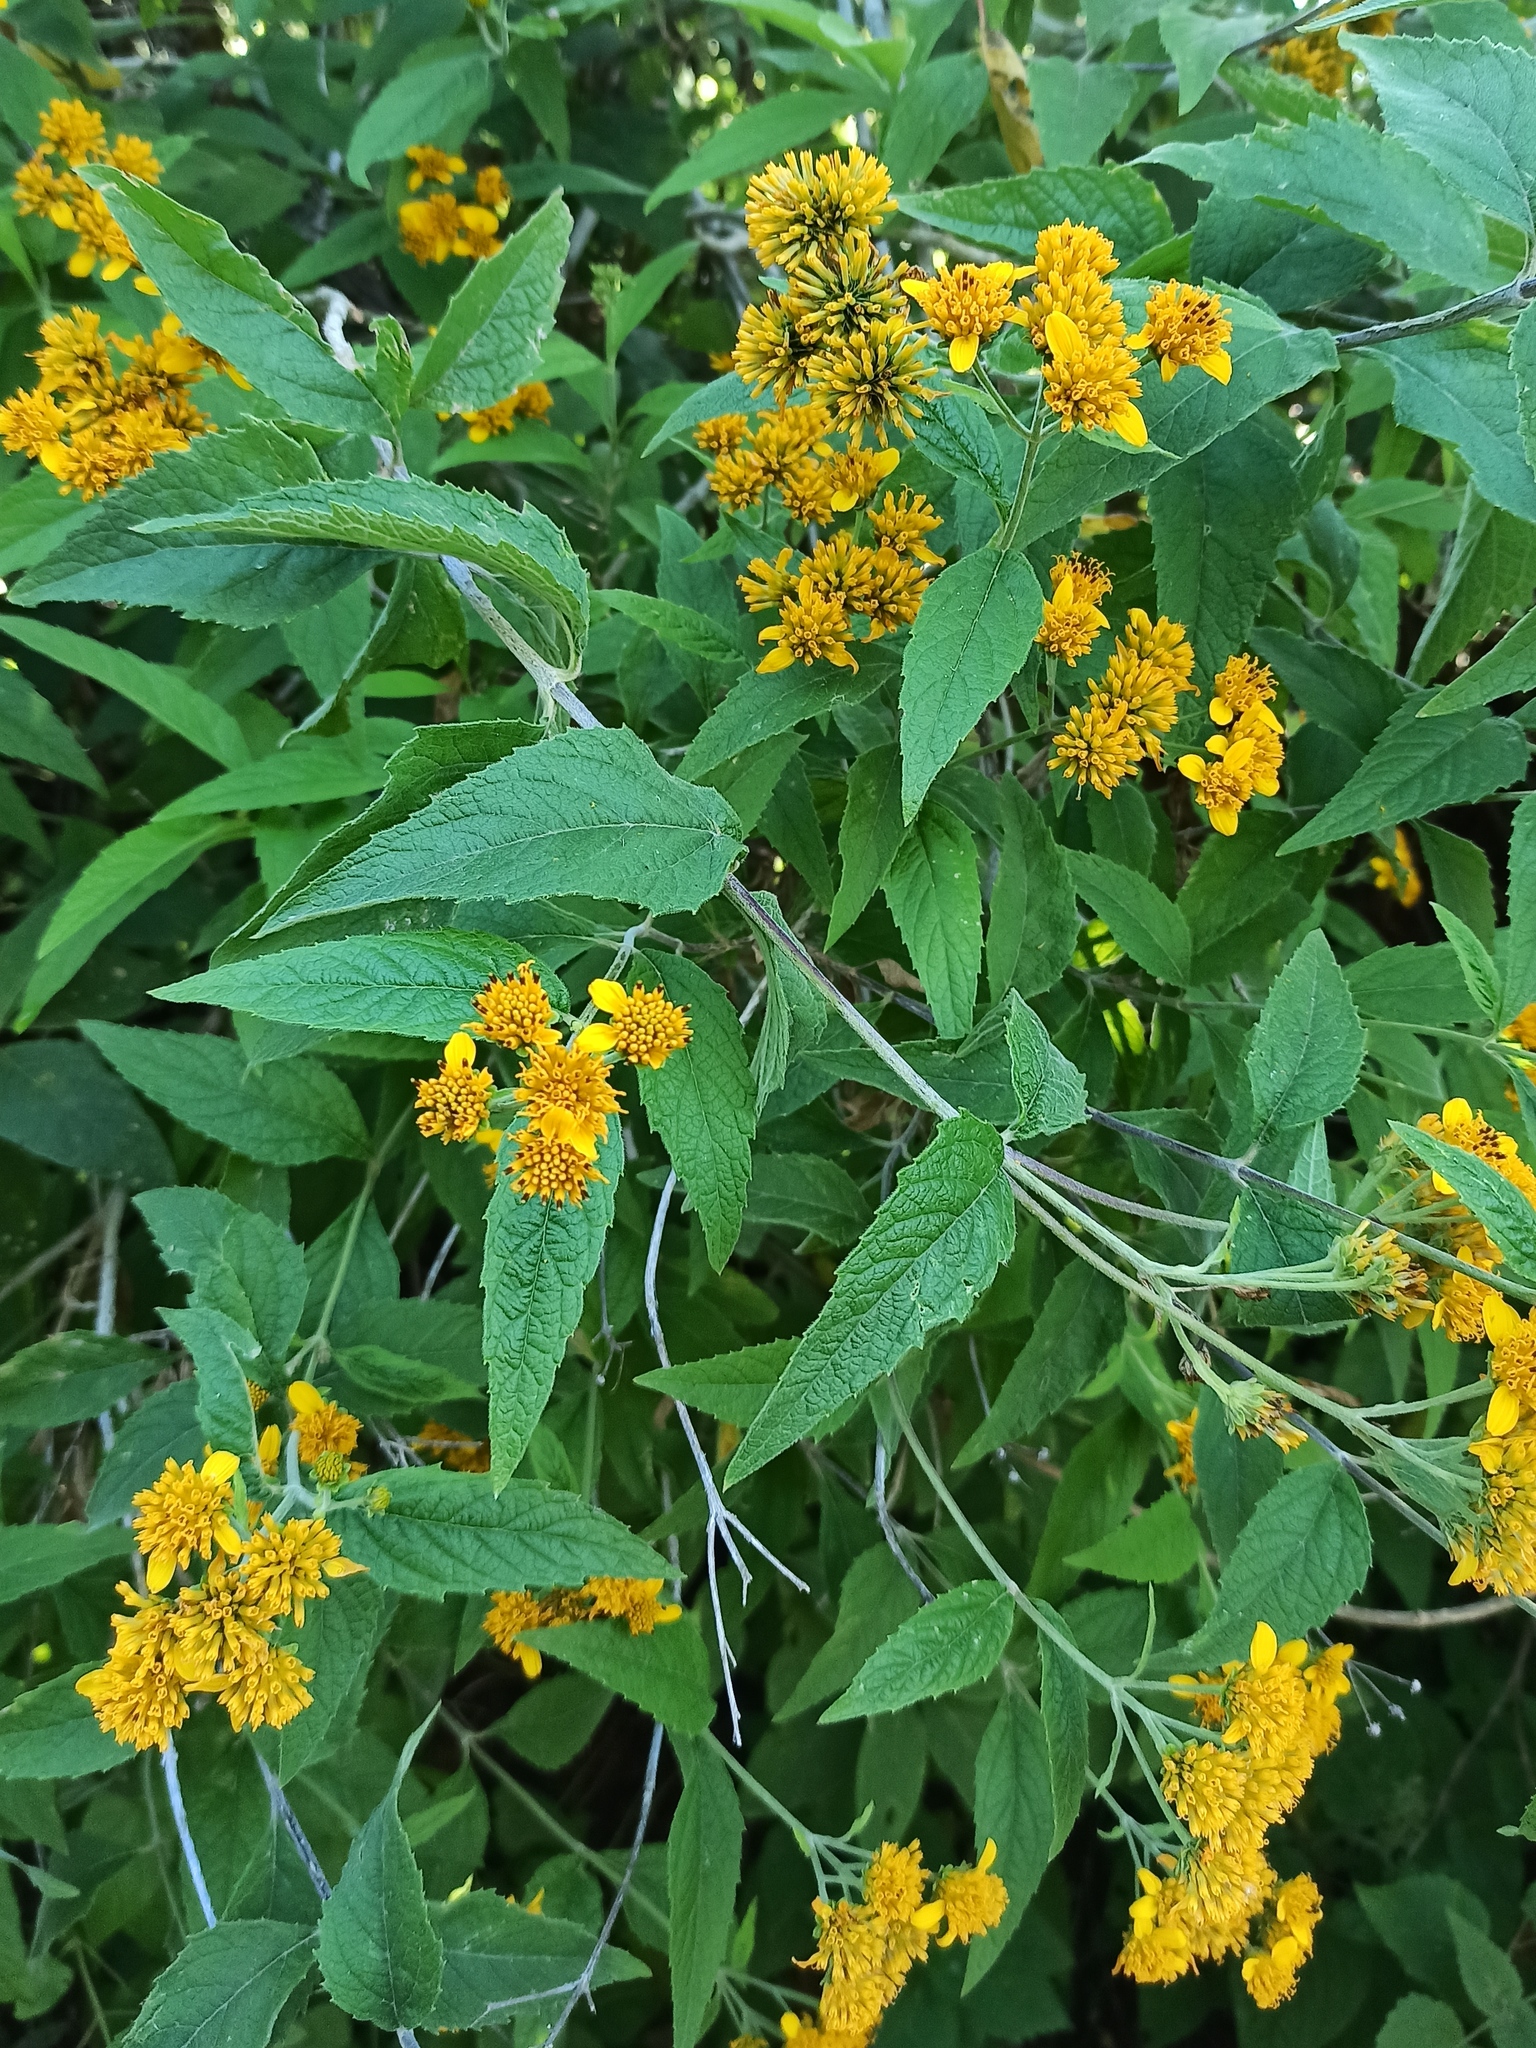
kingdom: Plantae
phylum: Tracheophyta
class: Magnoliopsida
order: Asterales
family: Asteraceae
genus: Verbesina
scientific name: Verbesina serrata
